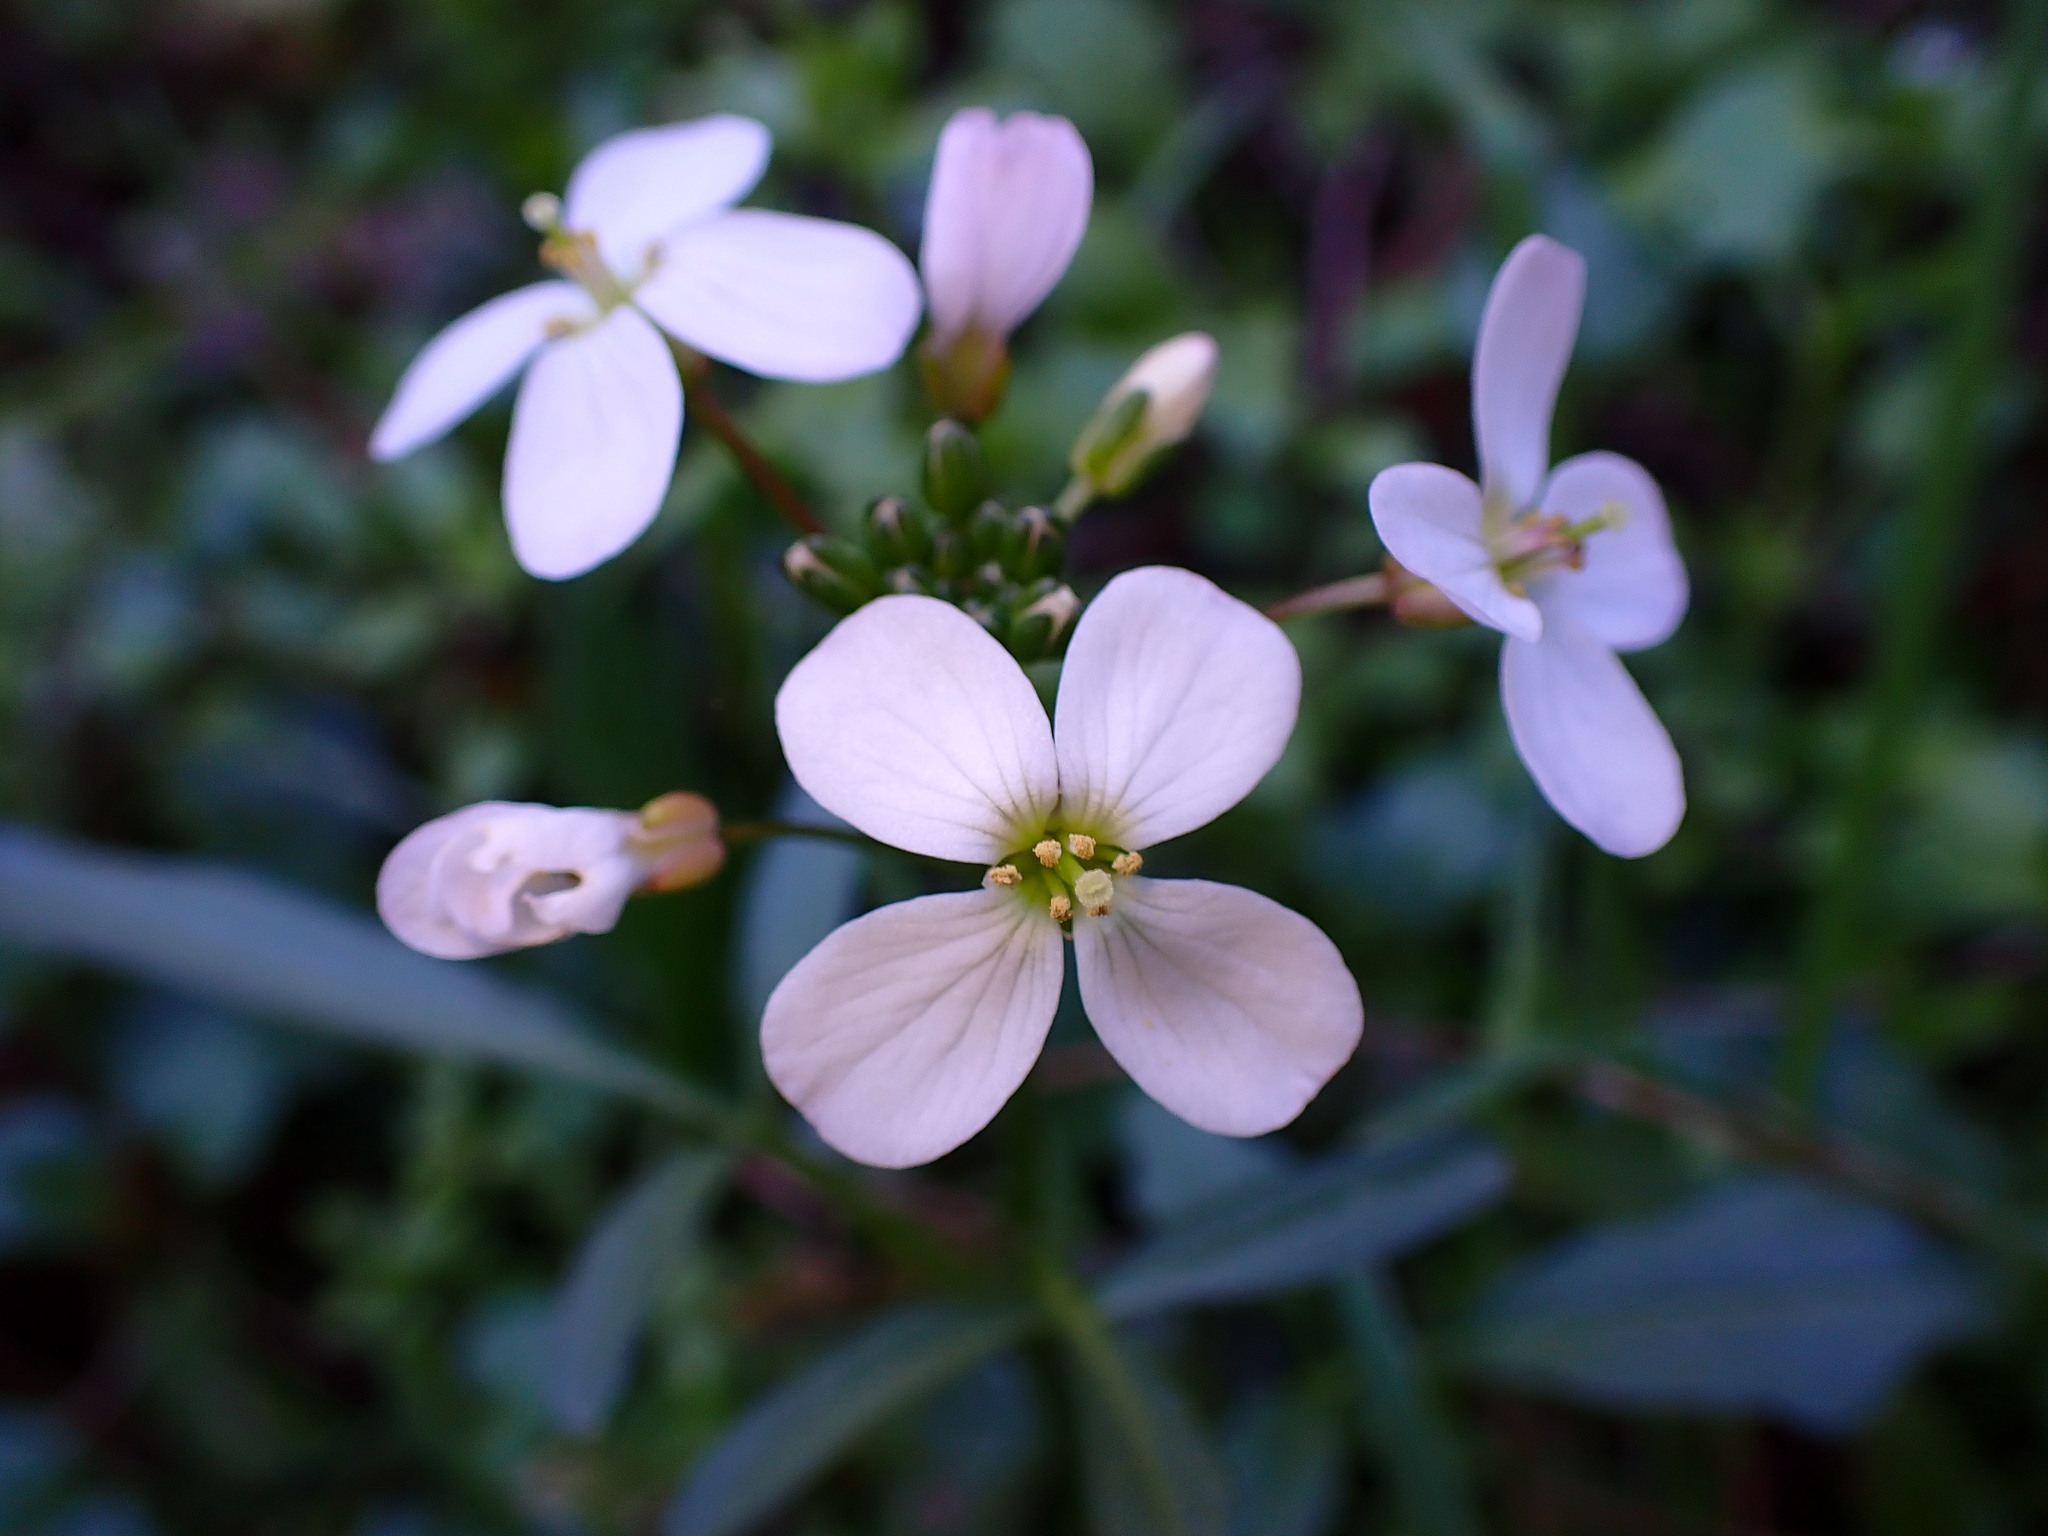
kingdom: Plantae
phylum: Tracheophyta
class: Magnoliopsida
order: Brassicales
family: Brassicaceae
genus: Cardamine
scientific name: Cardamine californica
